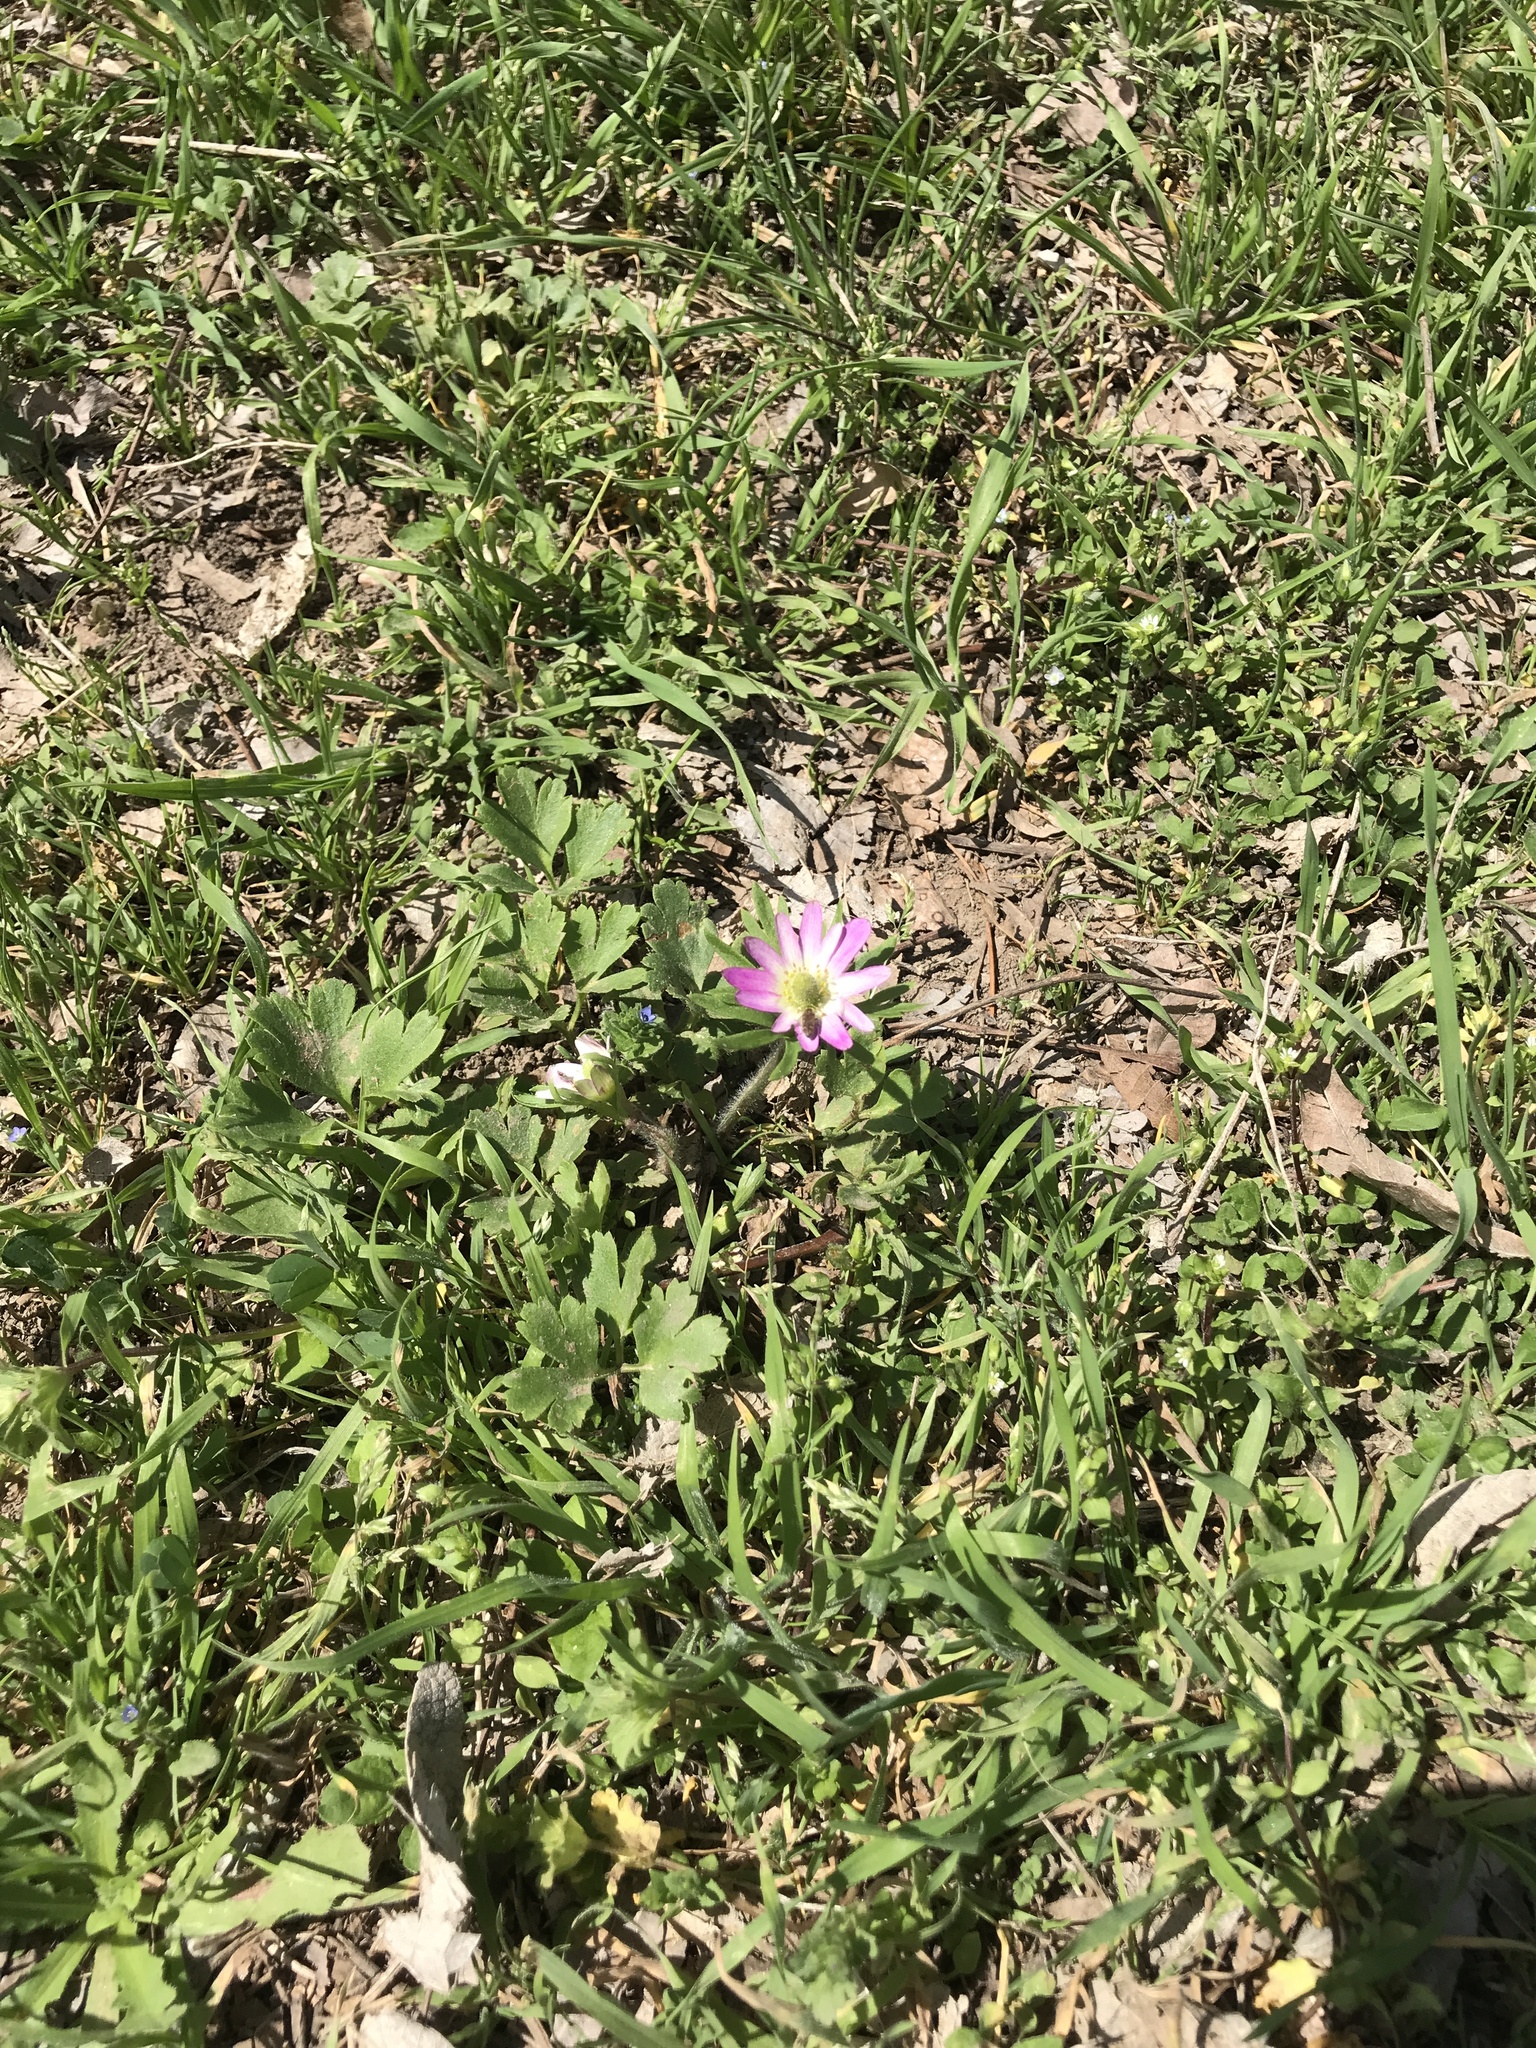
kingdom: Plantae
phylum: Tracheophyta
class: Magnoliopsida
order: Ranunculales
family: Ranunculaceae
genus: Anemone
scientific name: Anemone berlandieri
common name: Ten-petal anemone
